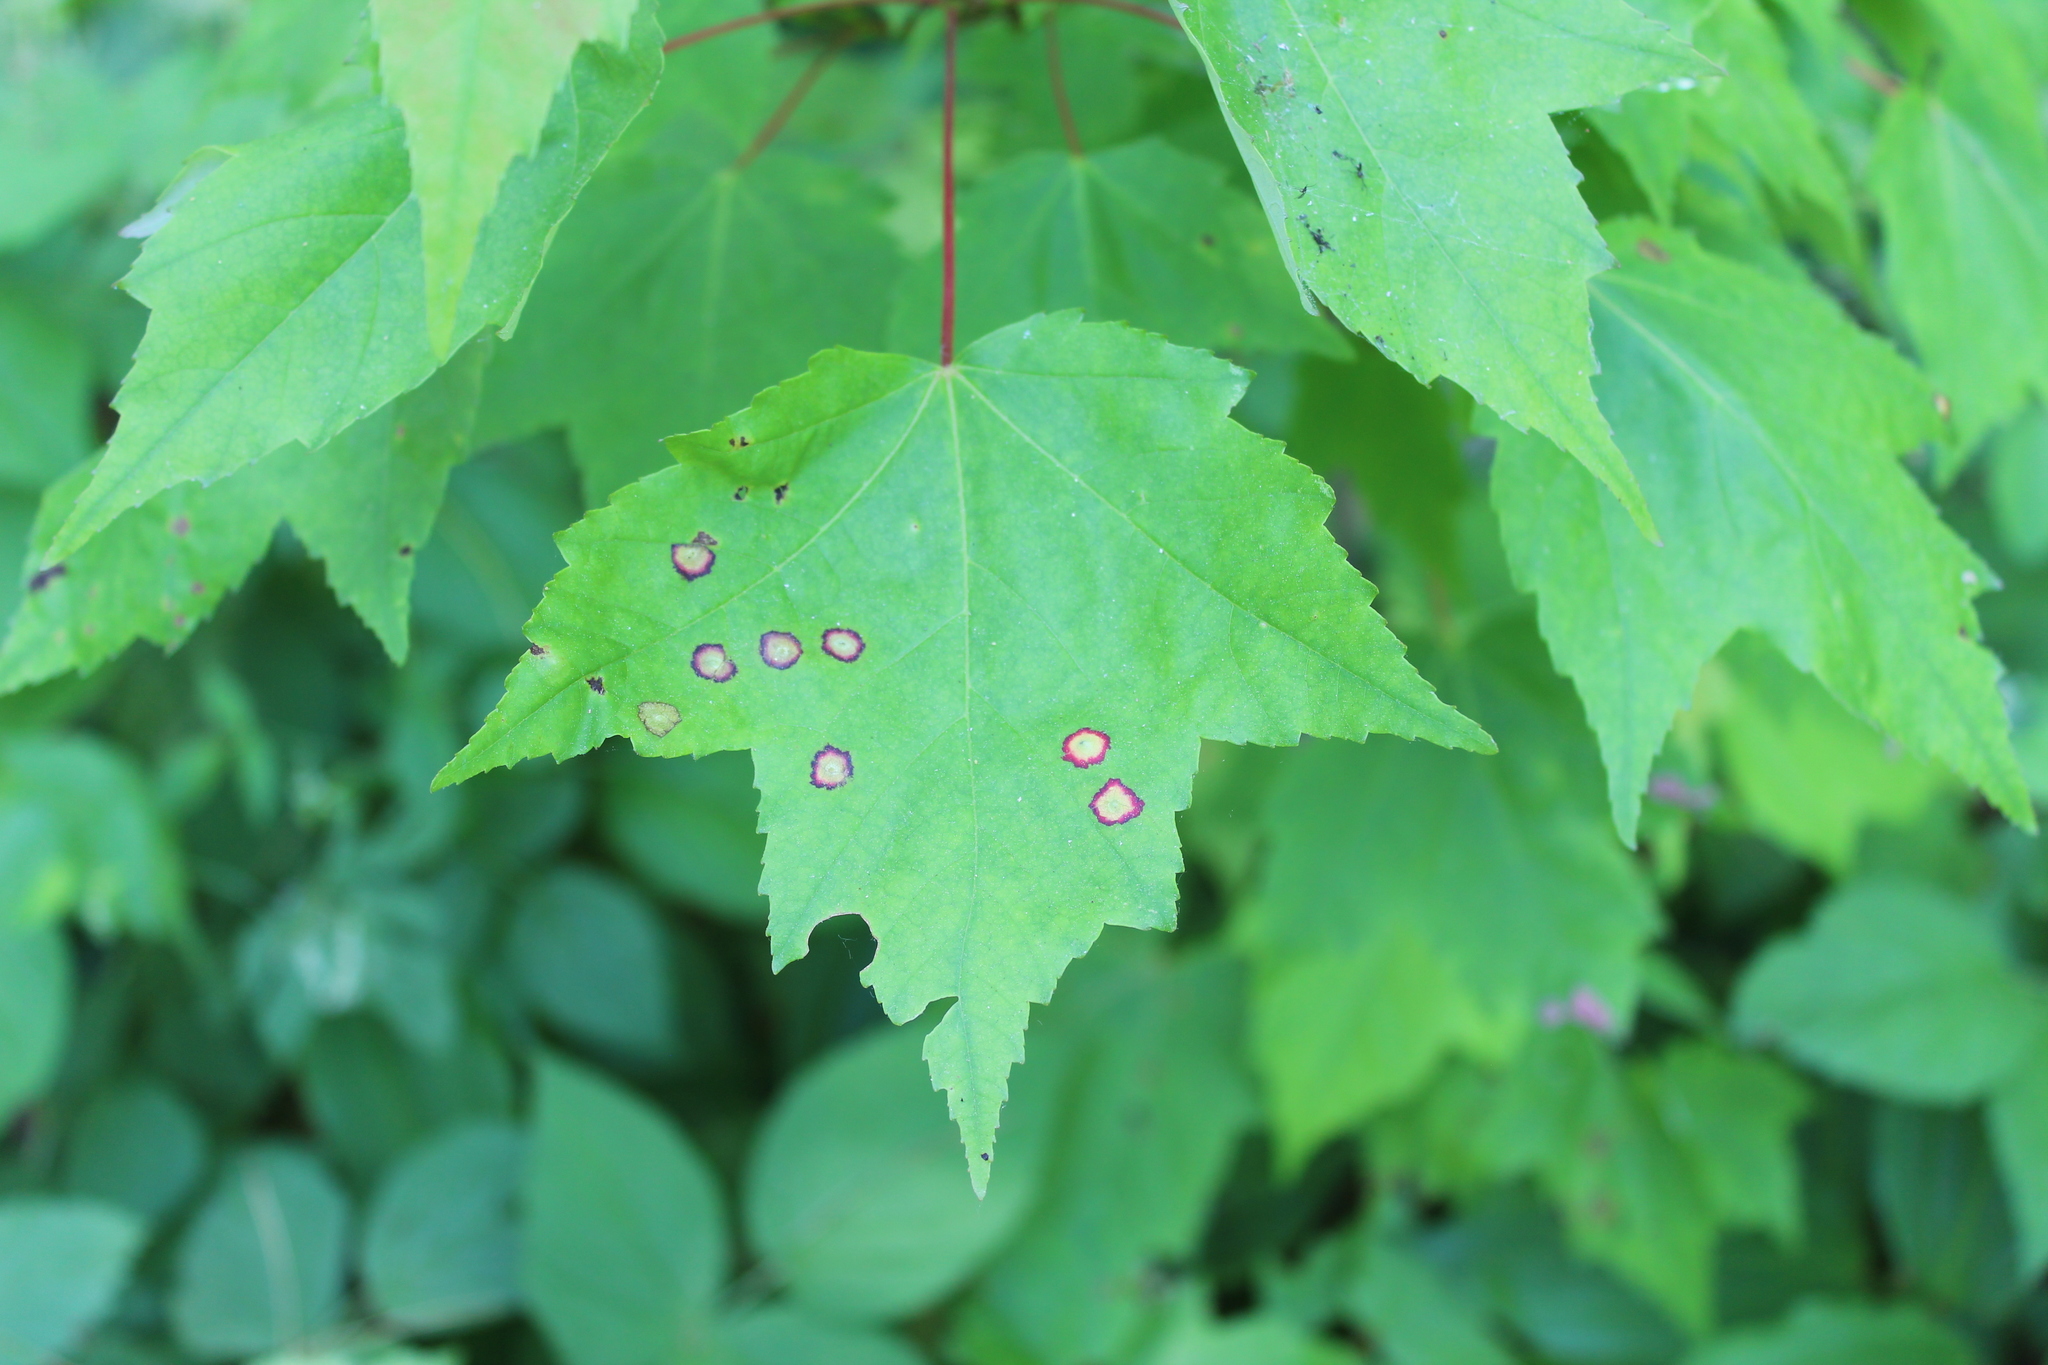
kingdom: Plantae
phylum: Tracheophyta
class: Magnoliopsida
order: Sapindales
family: Sapindaceae
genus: Acer
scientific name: Acer rubrum
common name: Red maple
